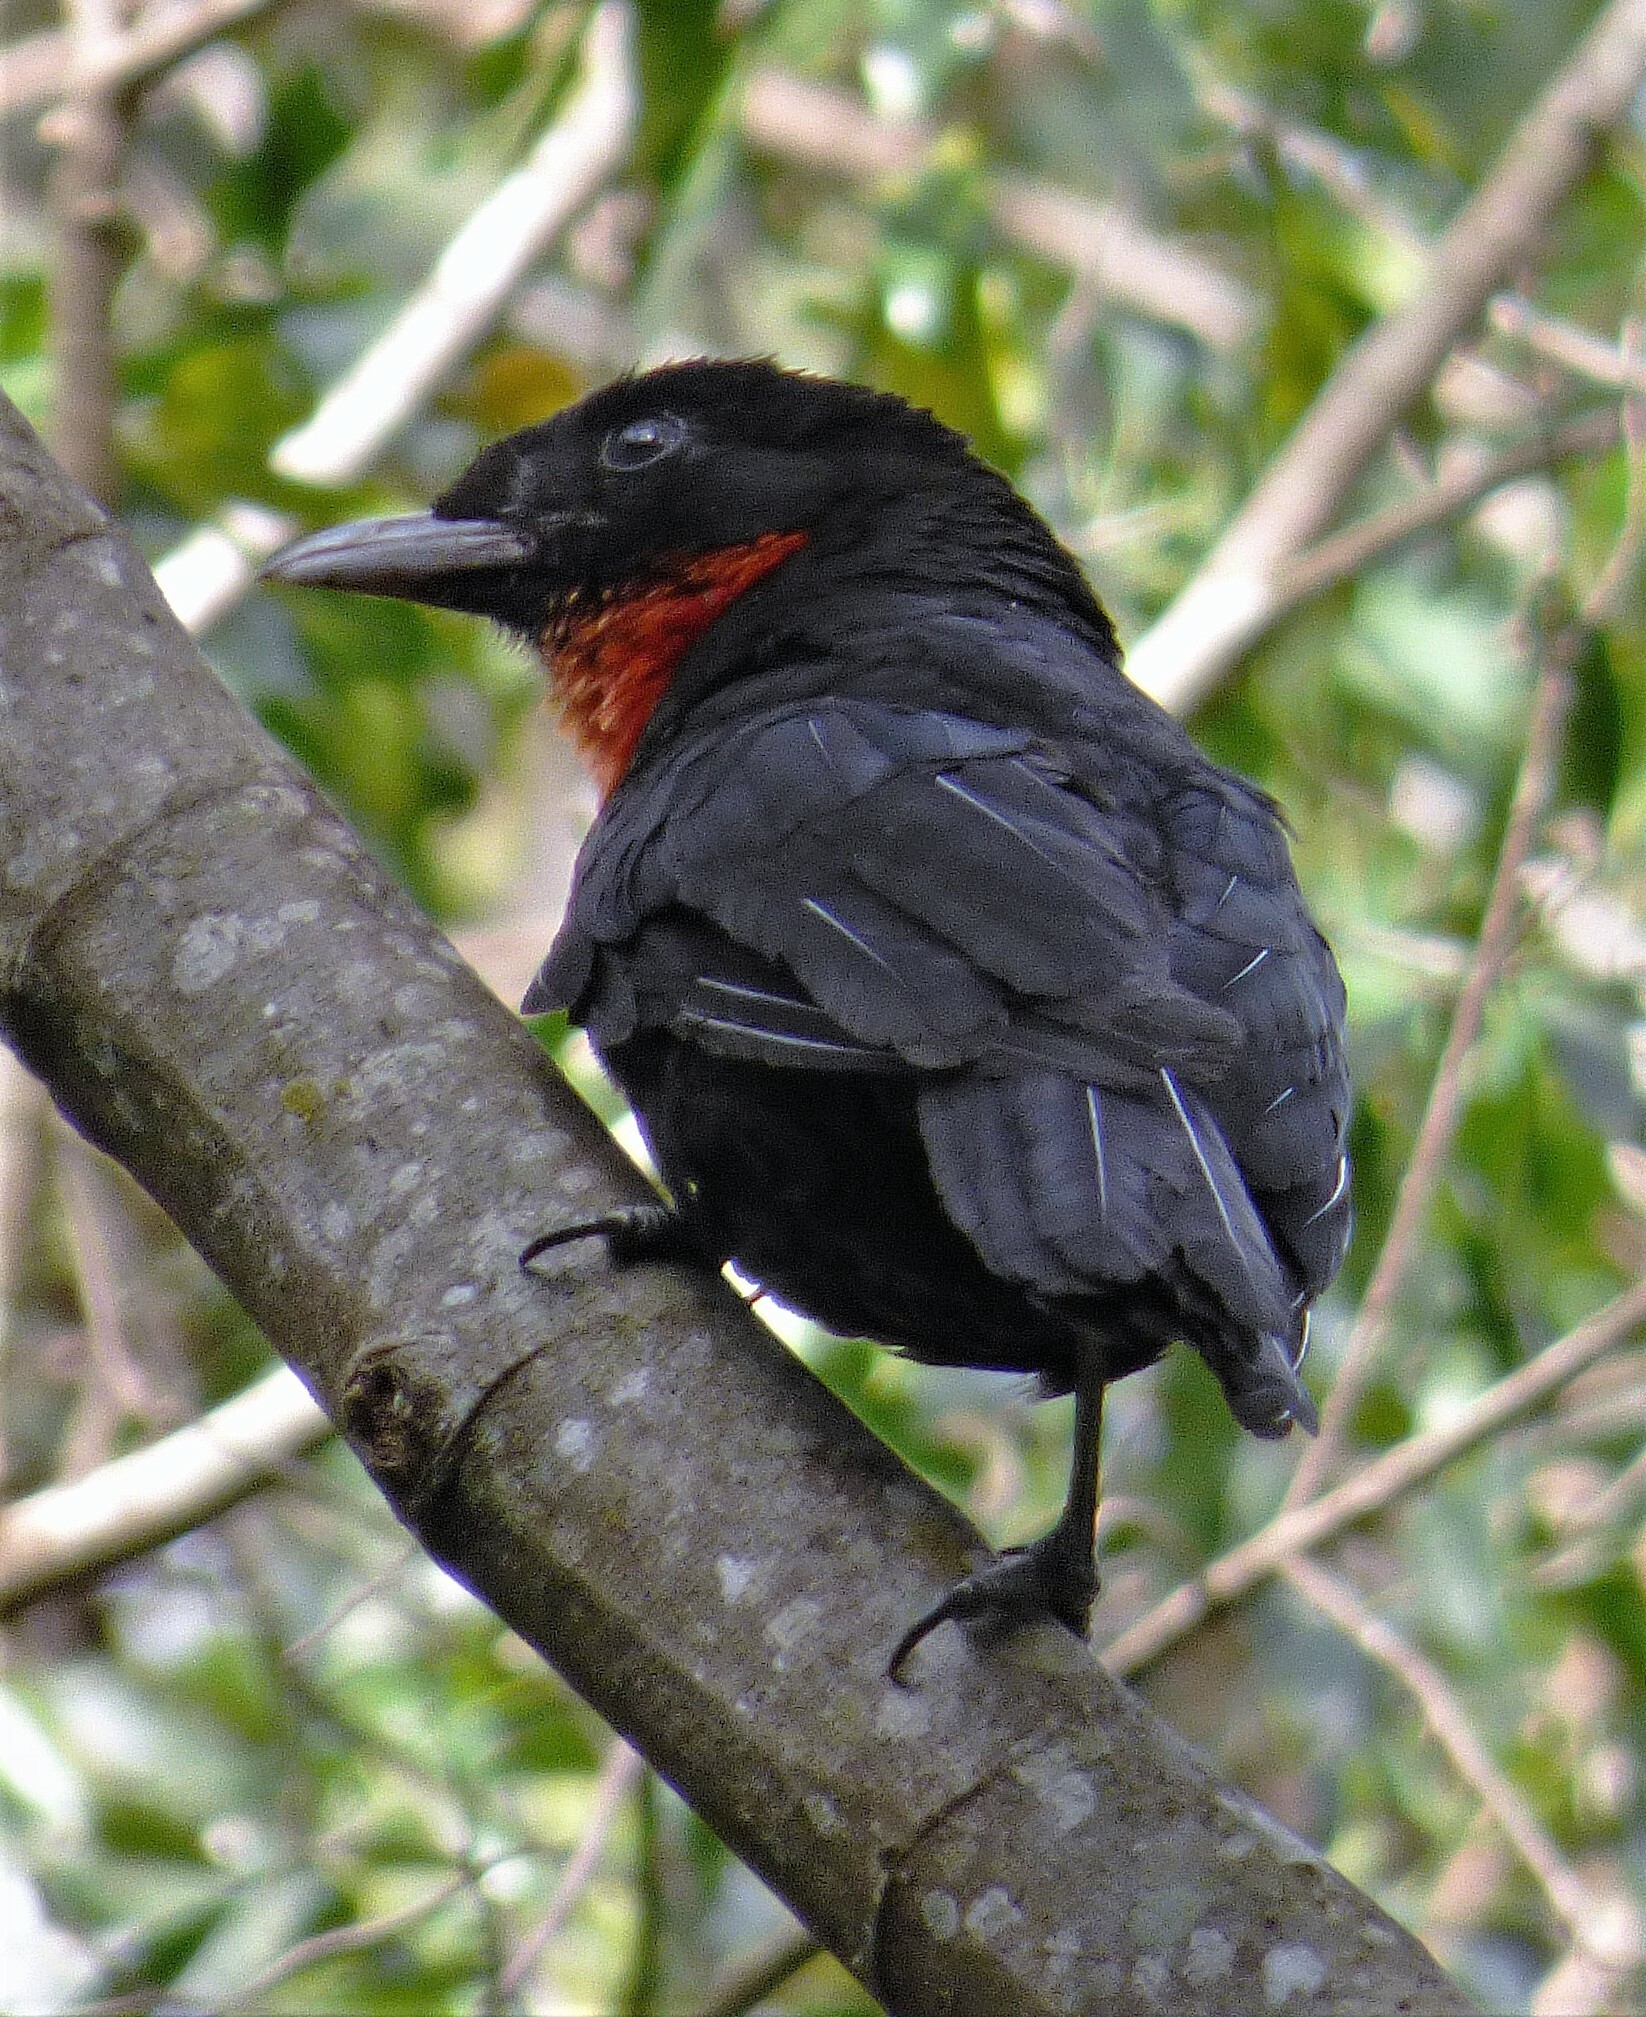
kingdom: Animalia
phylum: Chordata
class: Aves
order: Passeriformes
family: Cotingidae
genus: Pyroderus
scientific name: Pyroderus scutatus
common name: Red-ruffed fruitcrow
